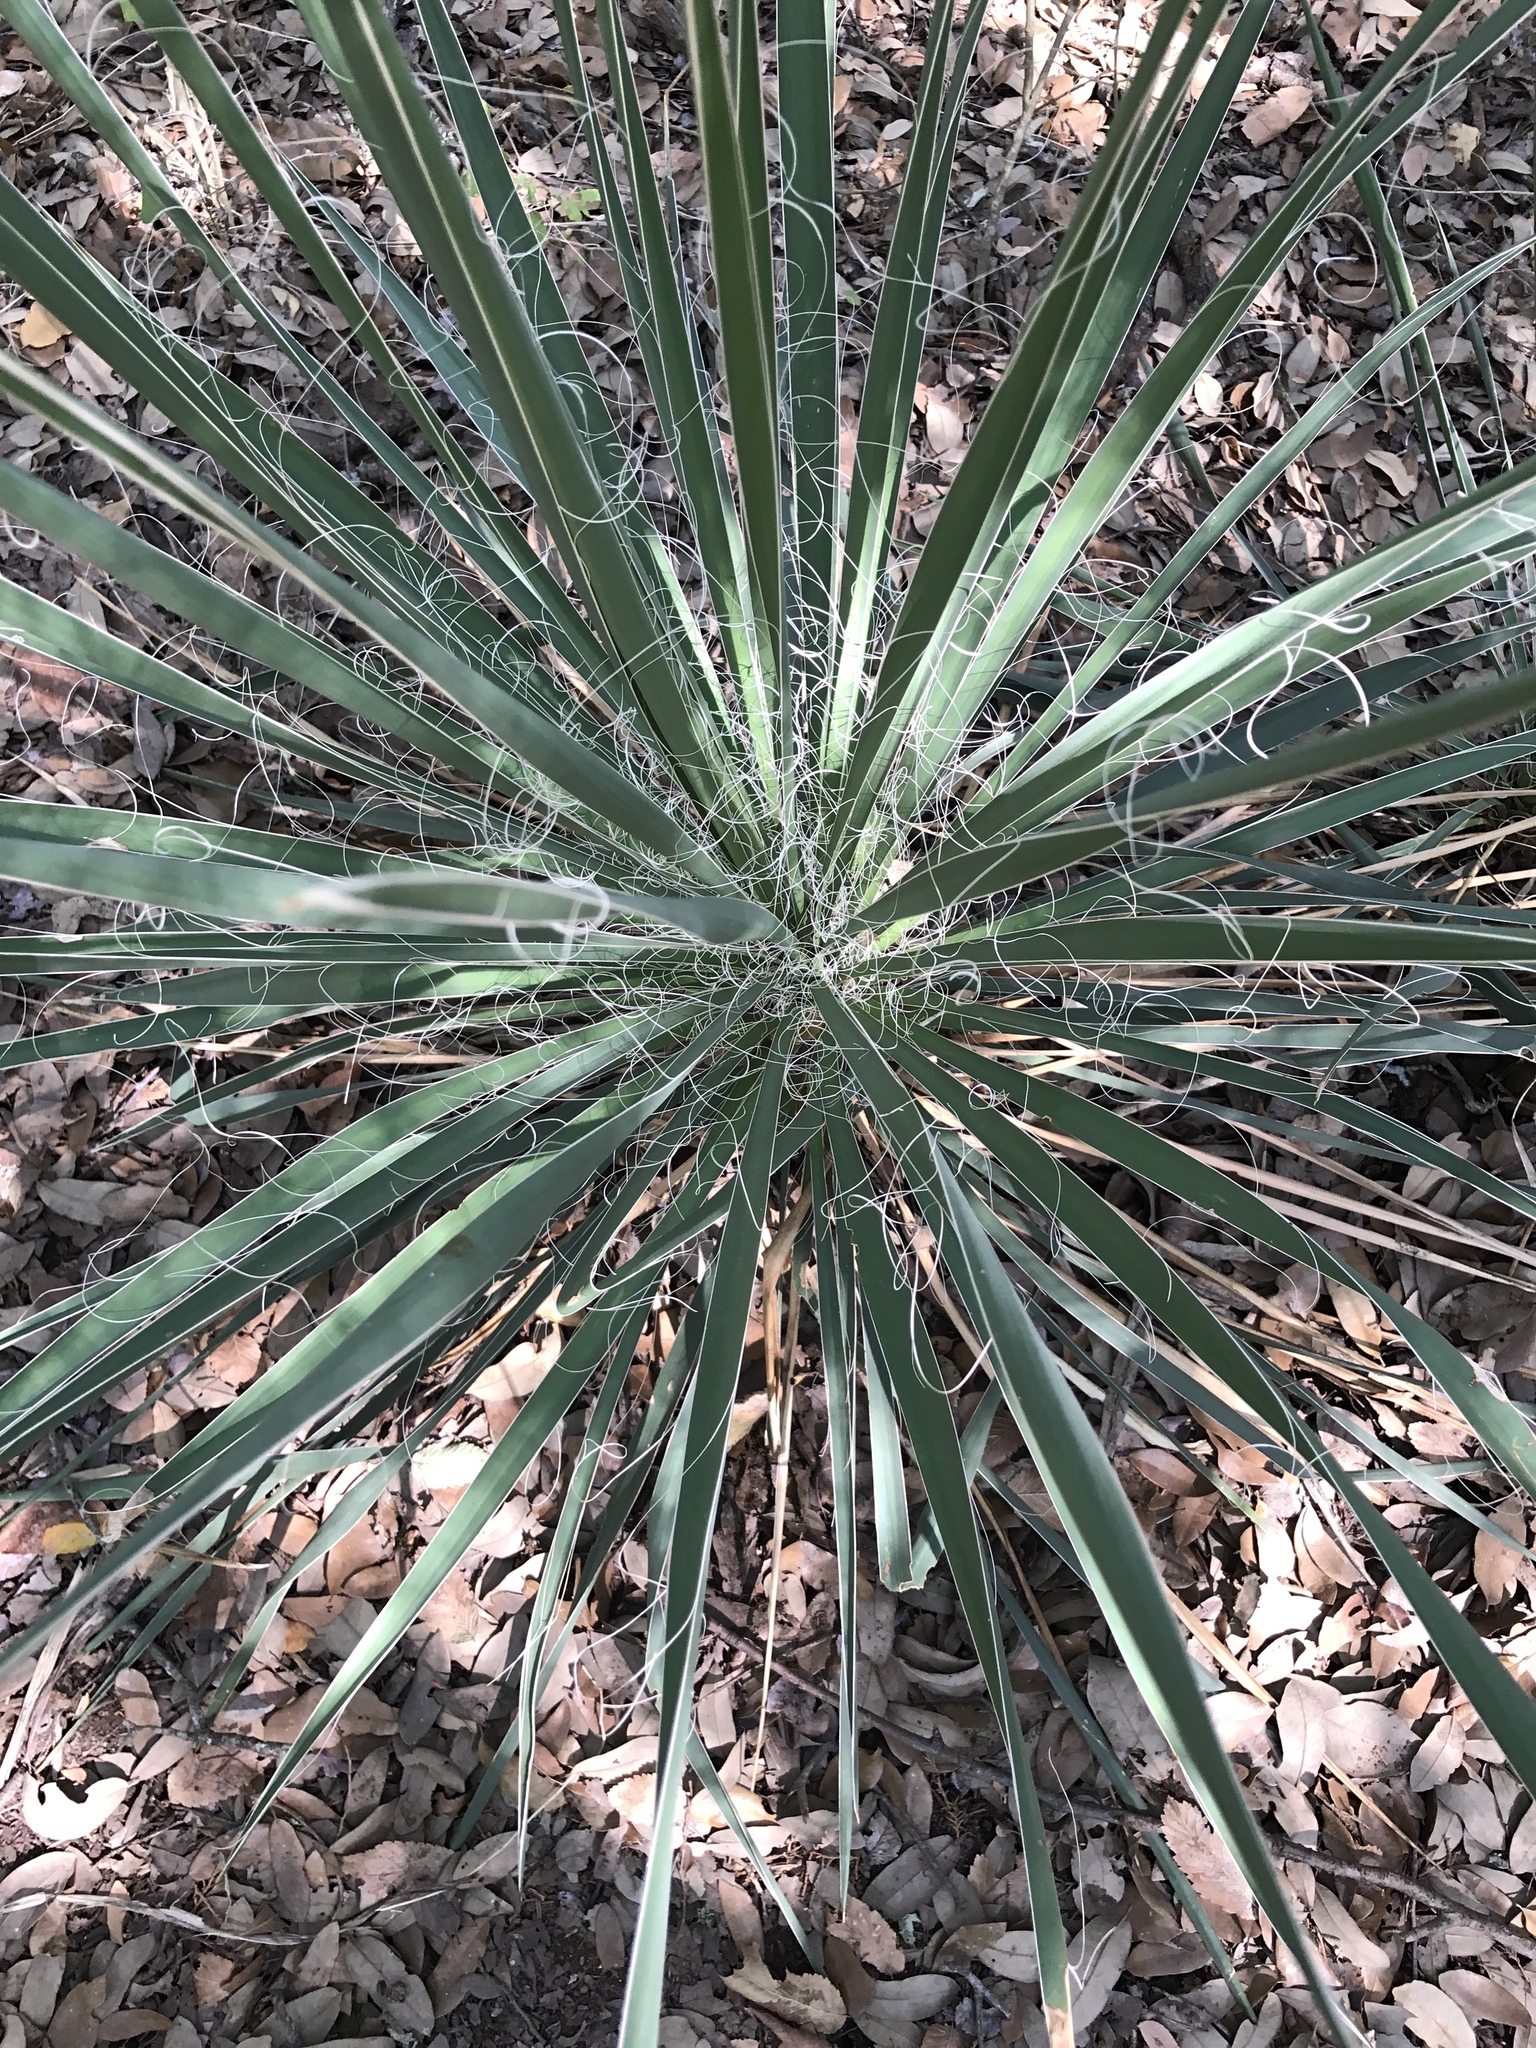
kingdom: Plantae
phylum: Tracheophyta
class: Liliopsida
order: Asparagales
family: Asparagaceae
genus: Yucca
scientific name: Yucca constricta
